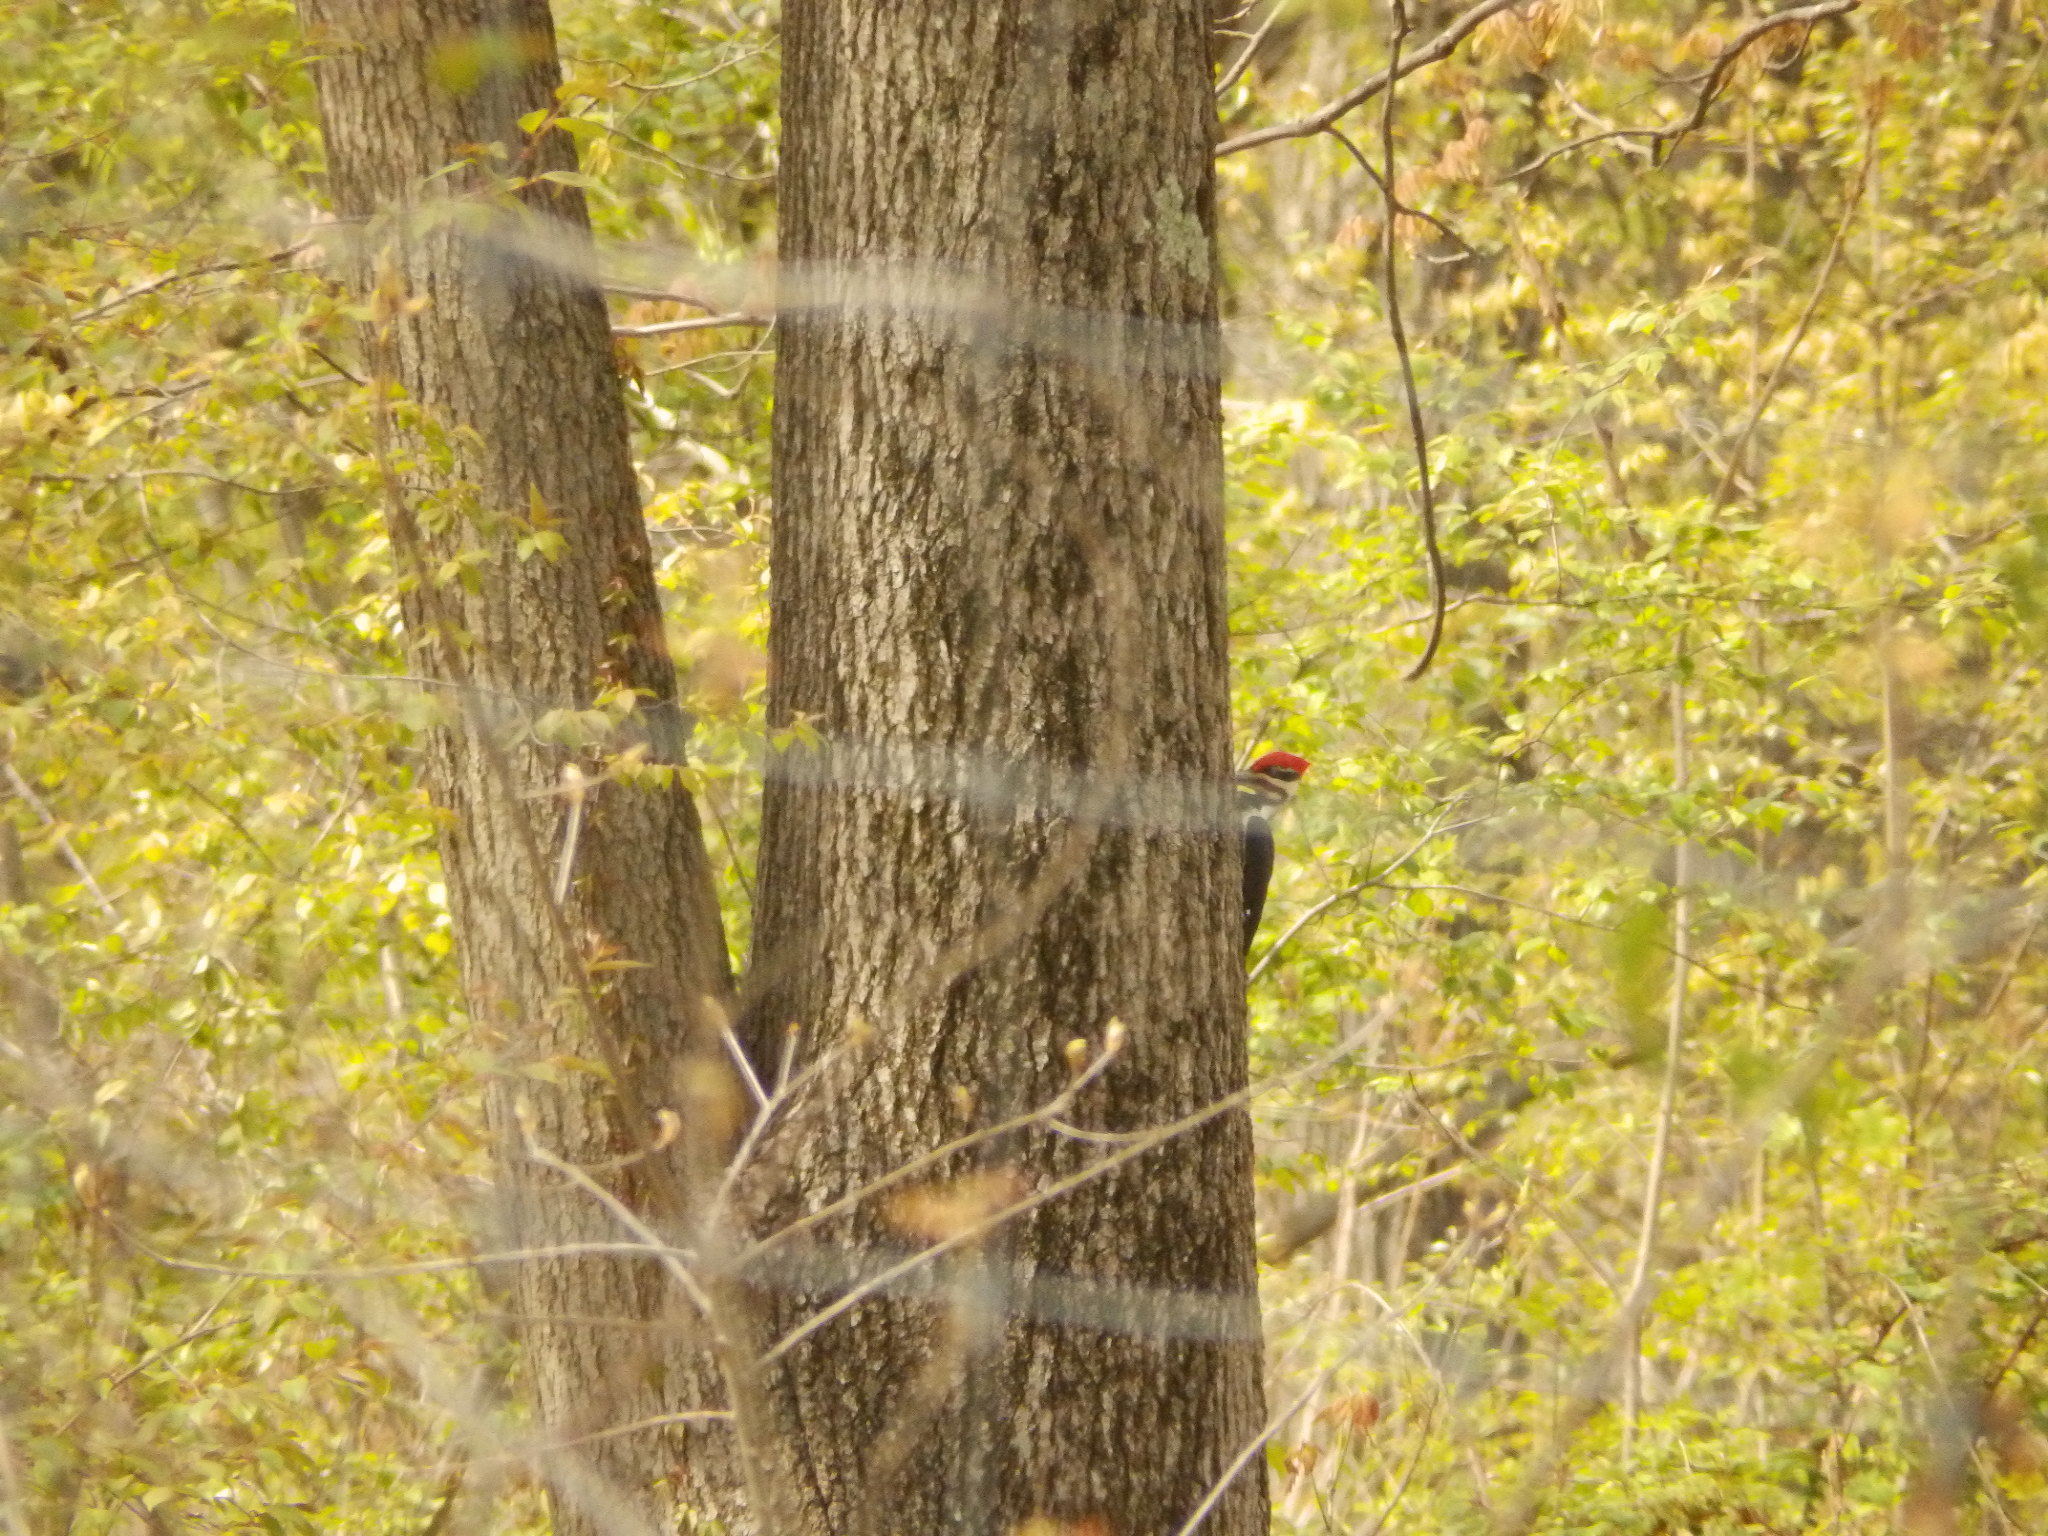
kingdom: Animalia
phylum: Chordata
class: Aves
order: Piciformes
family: Picidae
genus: Dryocopus
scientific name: Dryocopus pileatus
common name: Pileated woodpecker
